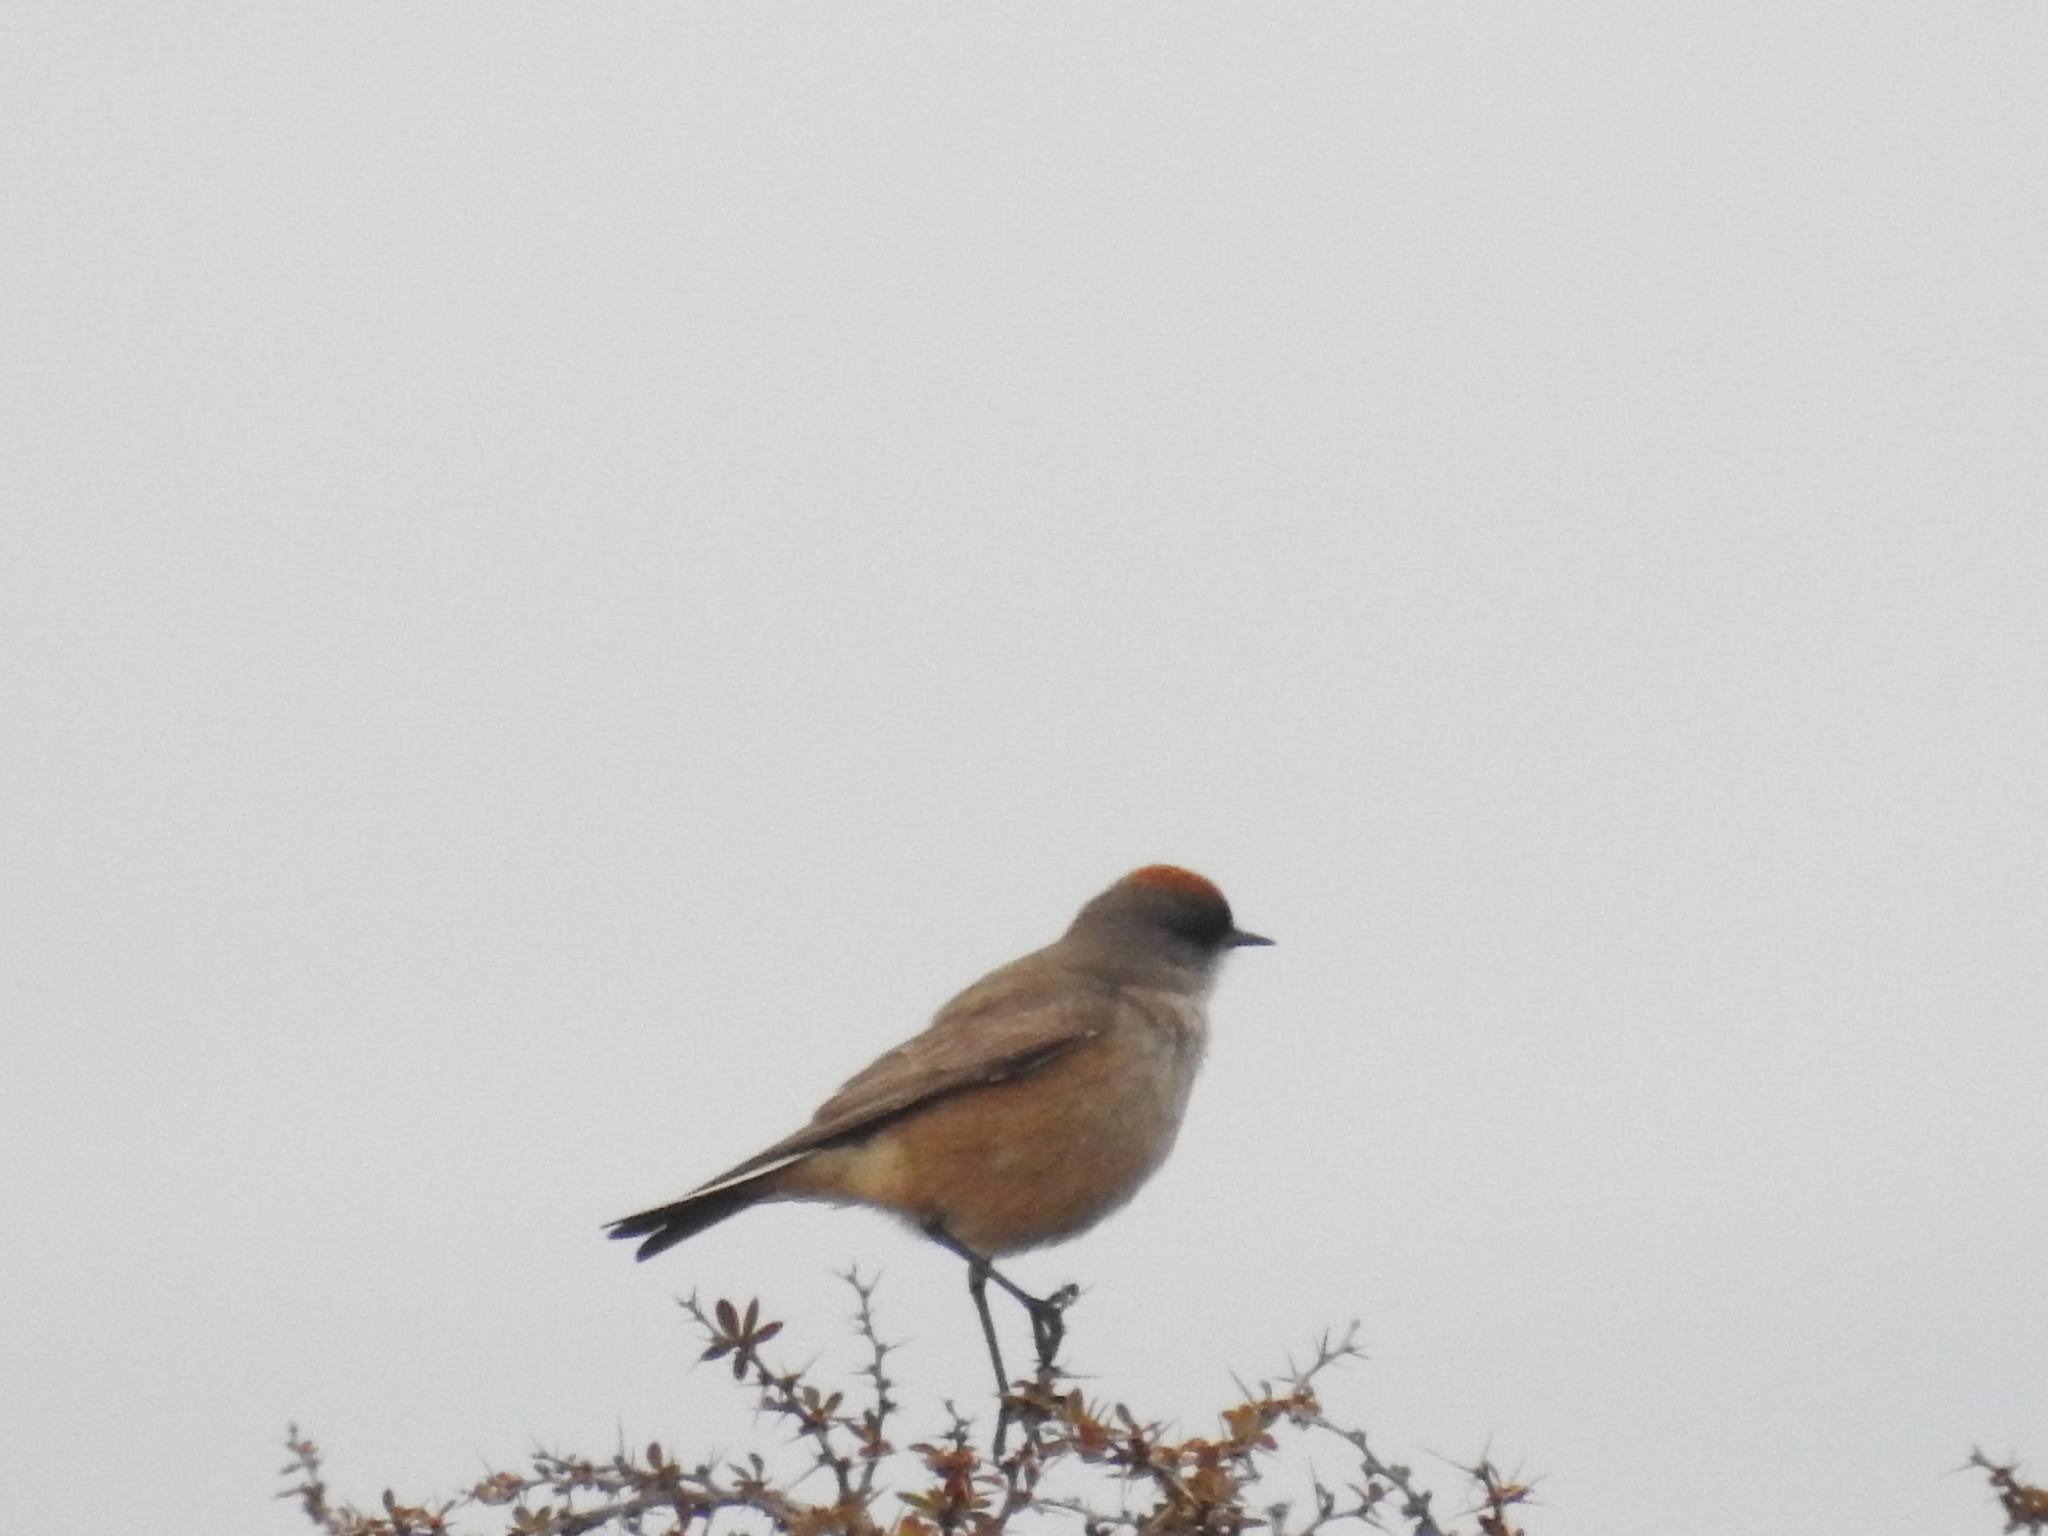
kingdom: Animalia
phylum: Chordata
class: Aves
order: Passeriformes
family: Tyrannidae
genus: Muscisaxicola
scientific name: Muscisaxicola capistratus
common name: Cinnamon-bellied ground tyrant
